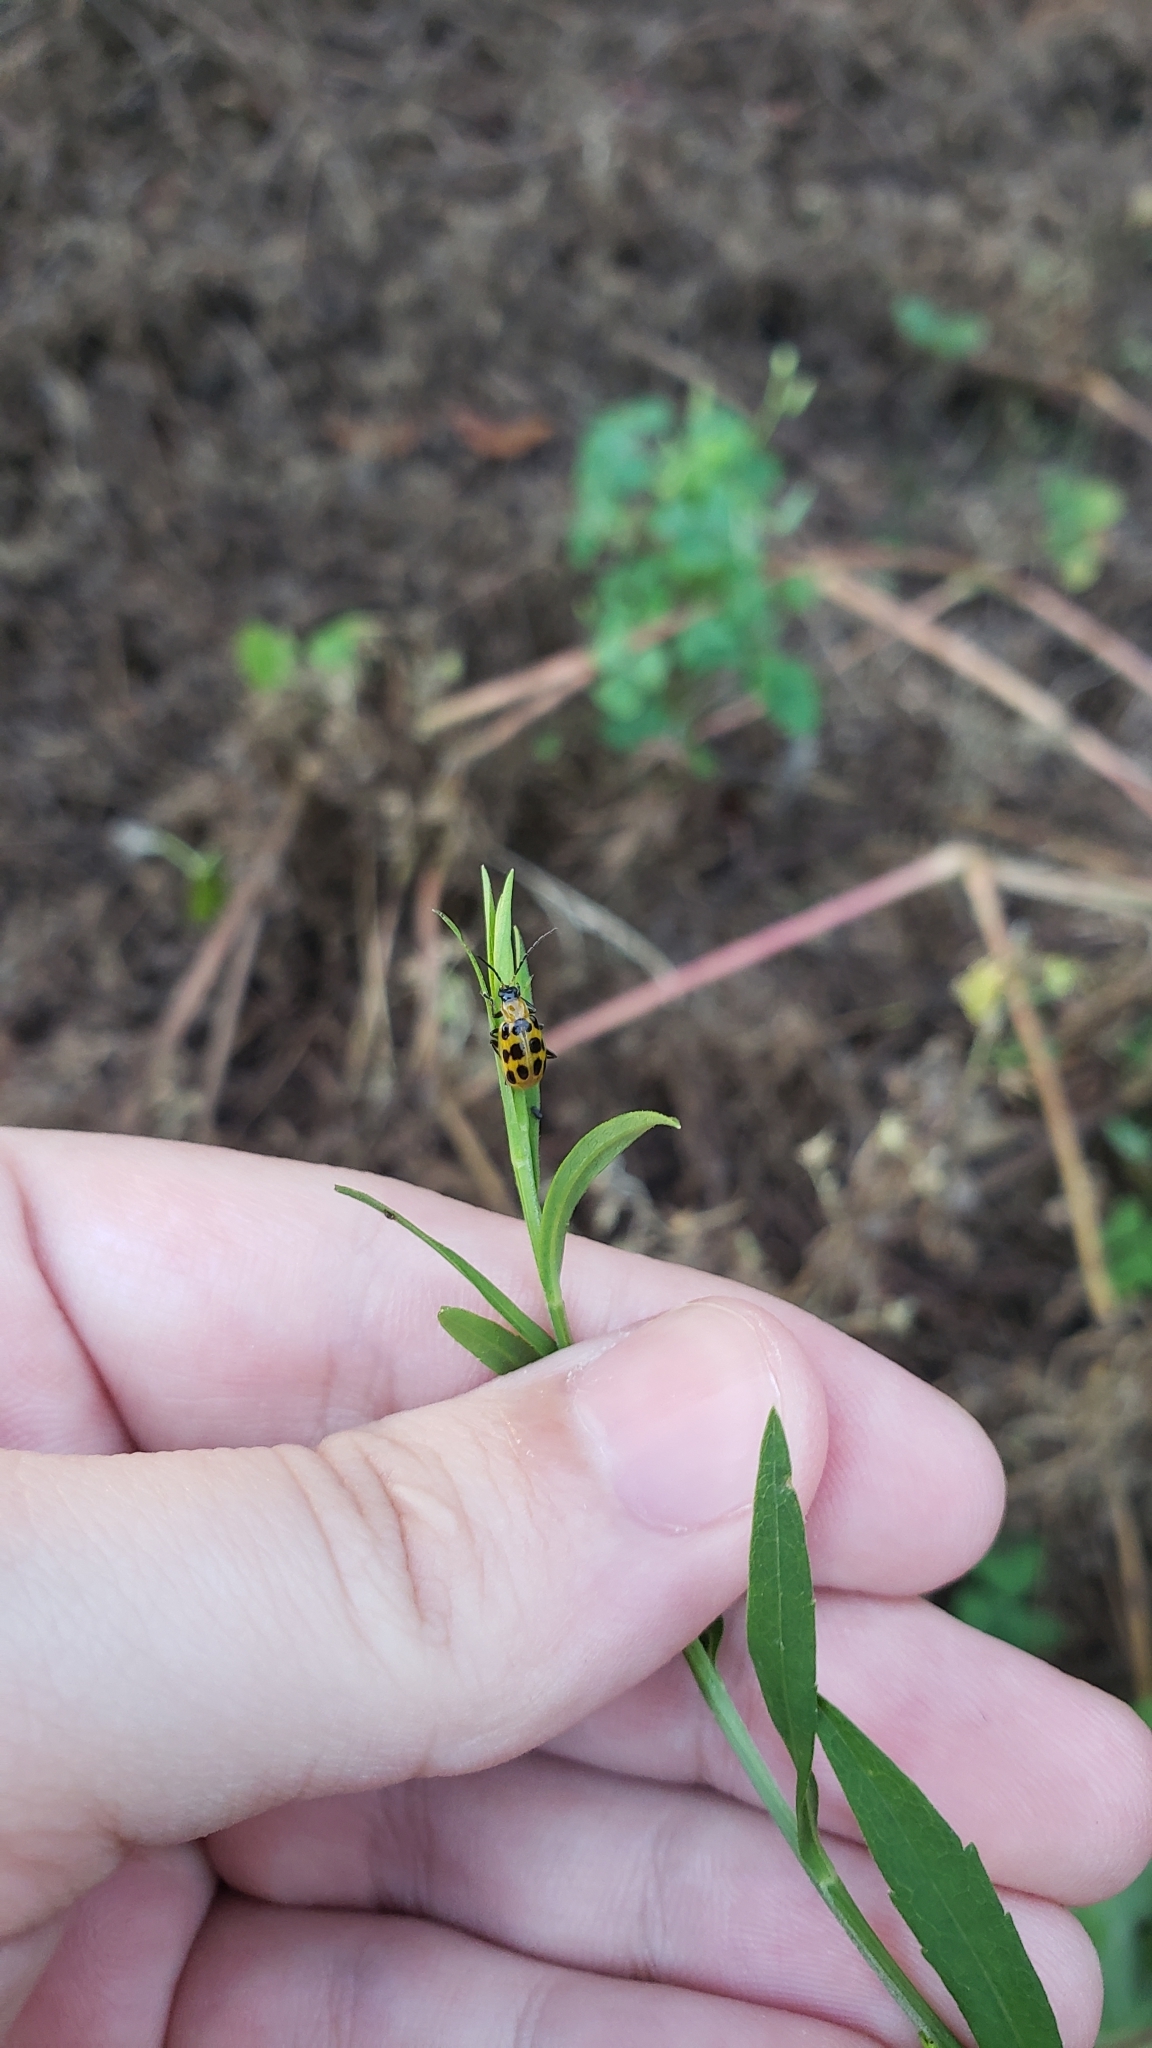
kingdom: Animalia
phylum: Arthropoda
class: Insecta
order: Coleoptera
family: Chrysomelidae
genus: Diabrotica
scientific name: Diabrotica undecimpunctata
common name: Spotted cucumber beetle
